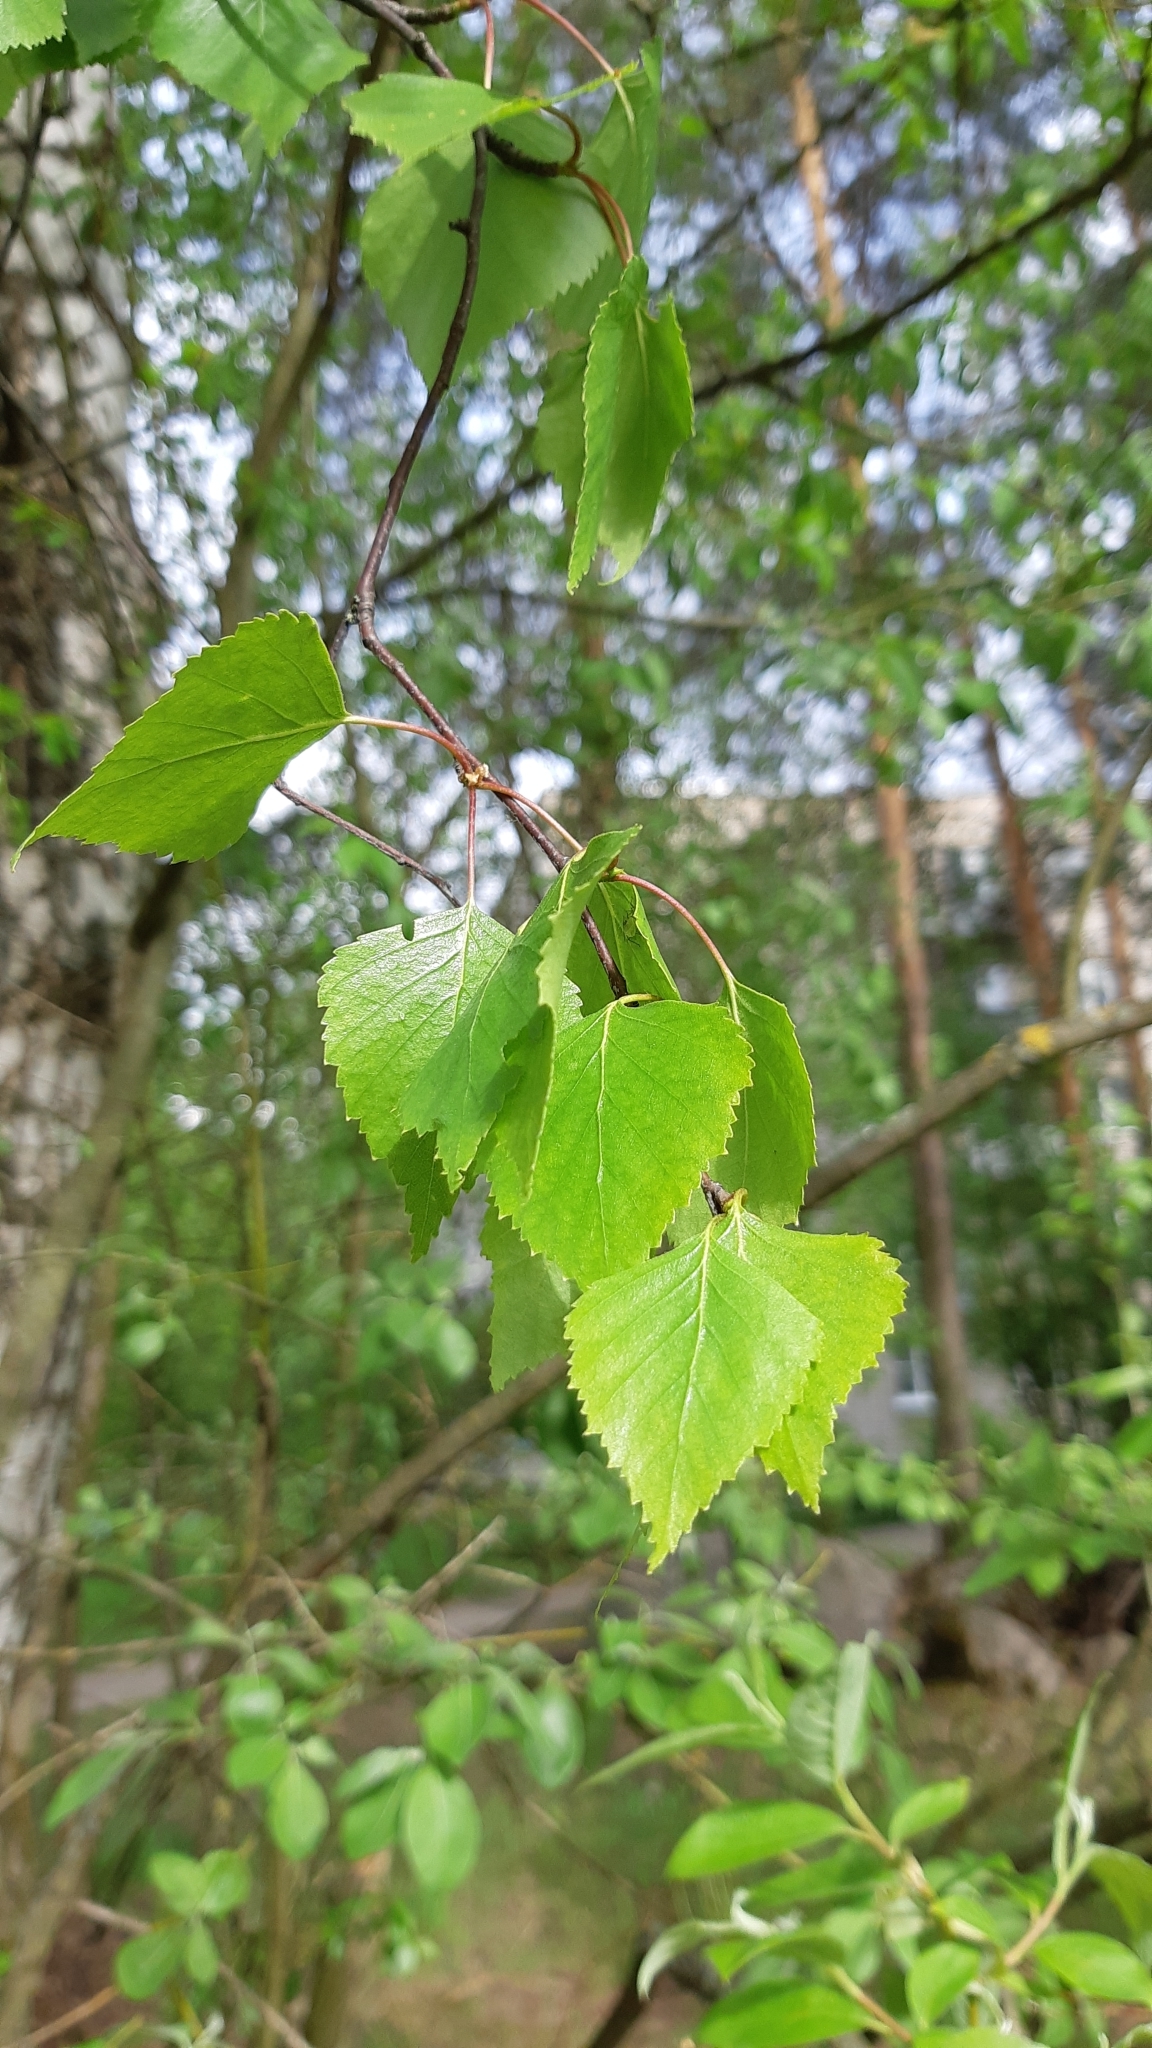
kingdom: Plantae
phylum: Tracheophyta
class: Magnoliopsida
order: Fagales
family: Betulaceae
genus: Betula
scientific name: Betula pendula
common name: Silver birch
